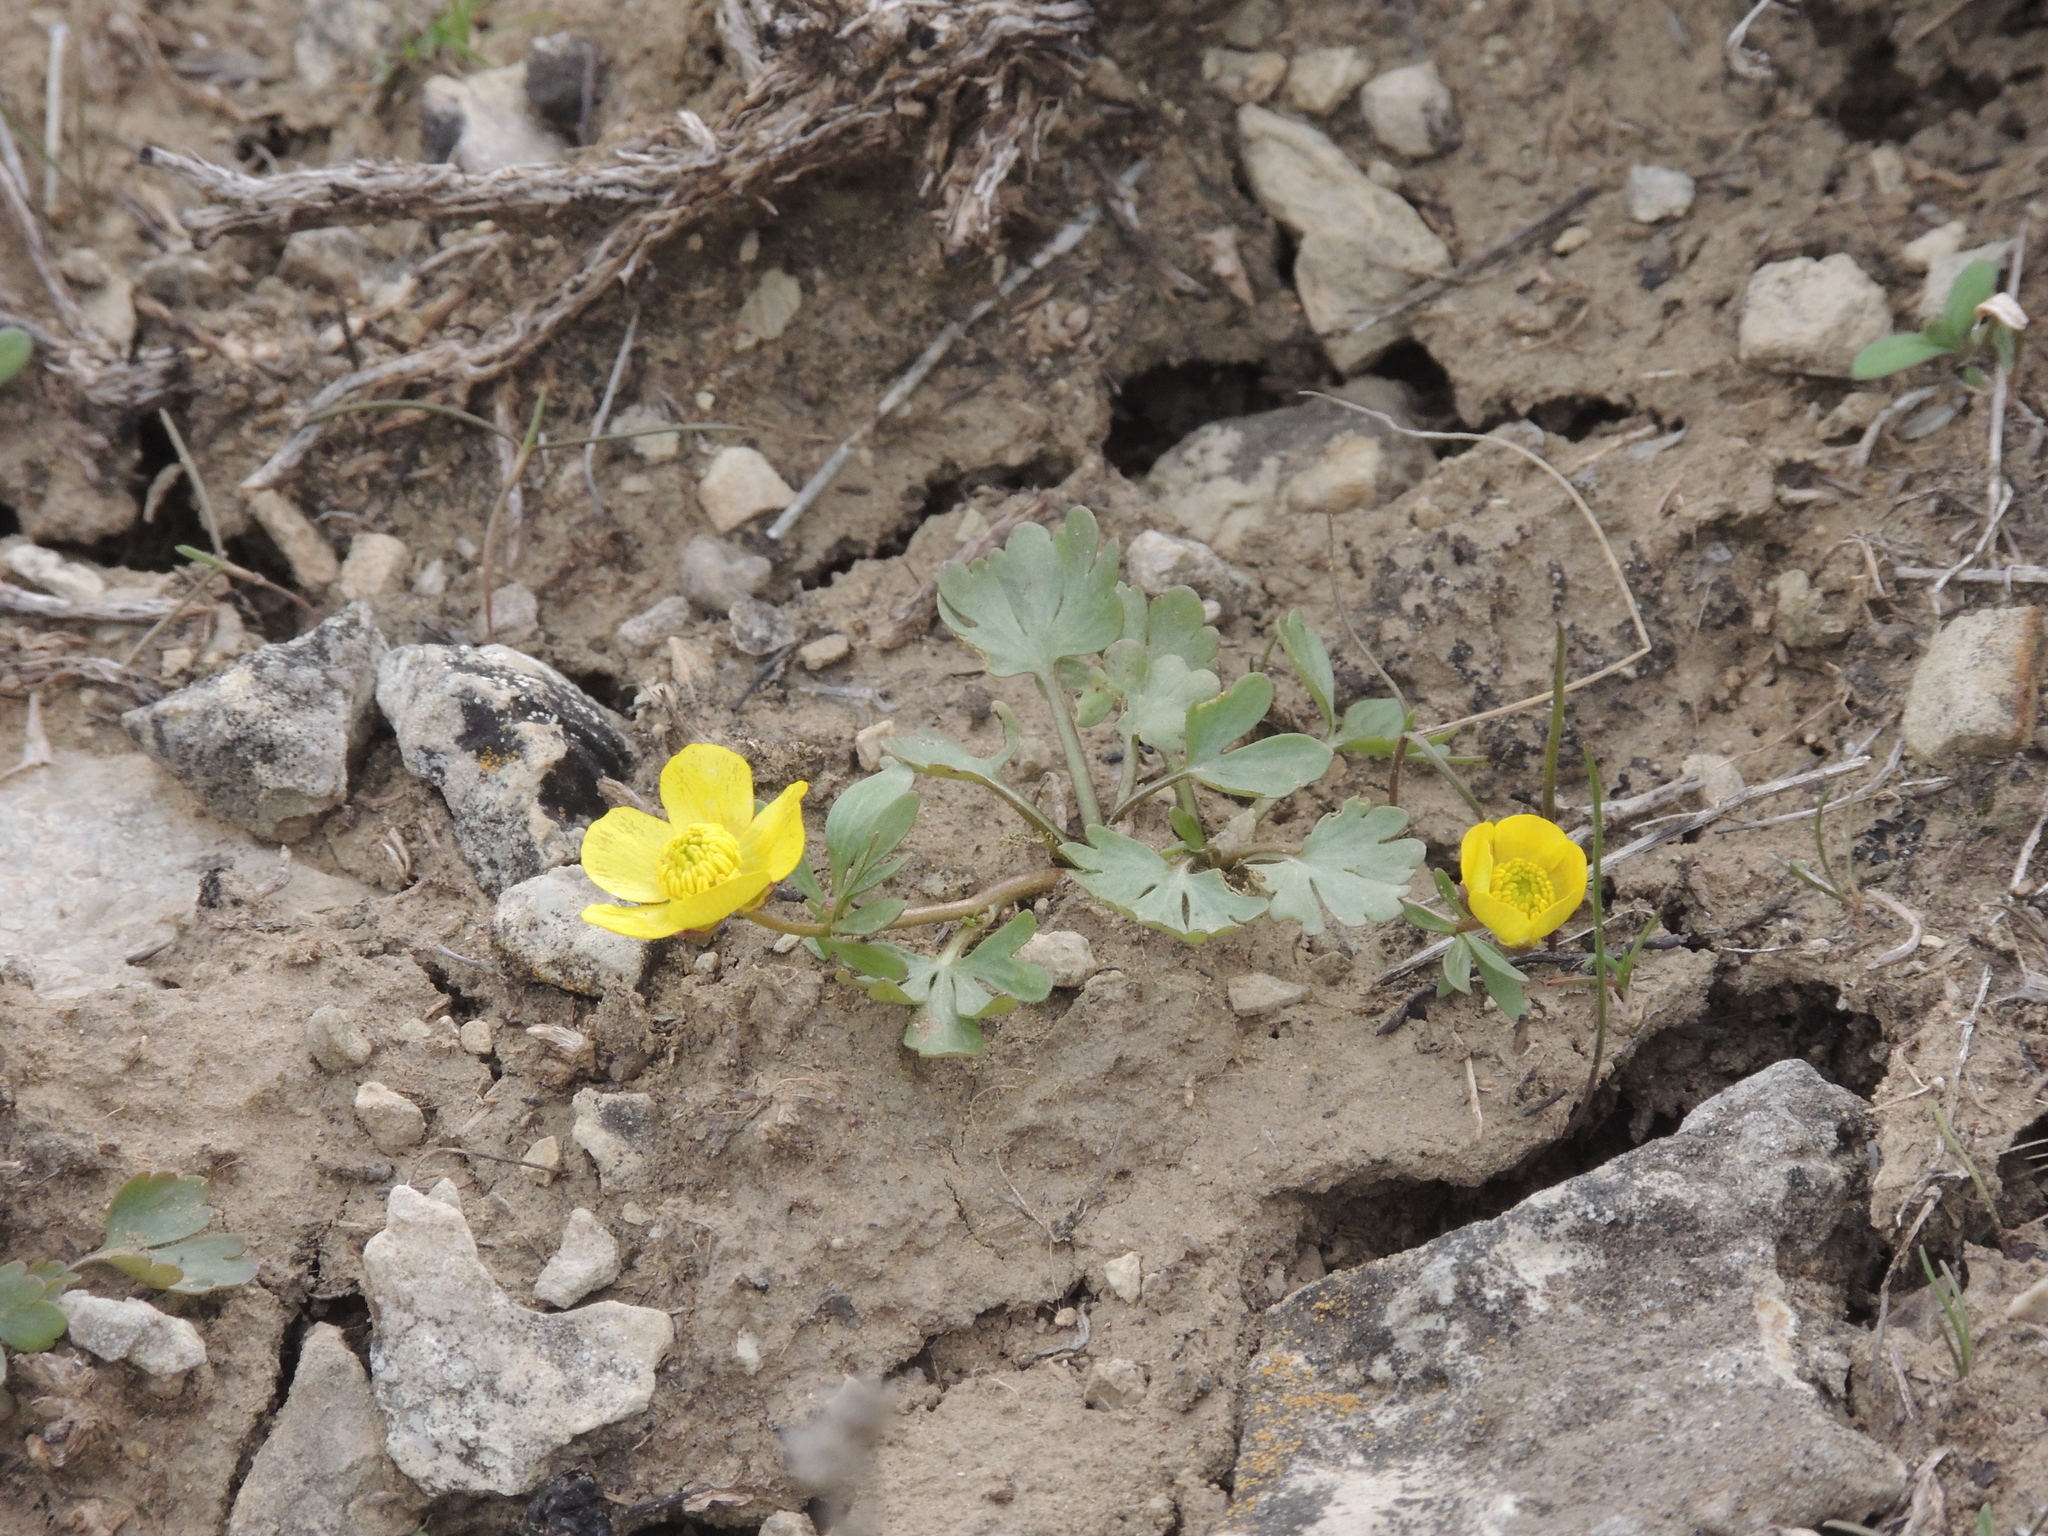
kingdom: Plantae
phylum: Tracheophyta
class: Magnoliopsida
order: Ranunculales
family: Ranunculaceae
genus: Ranunculus
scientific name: Ranunculus polyrhizos
